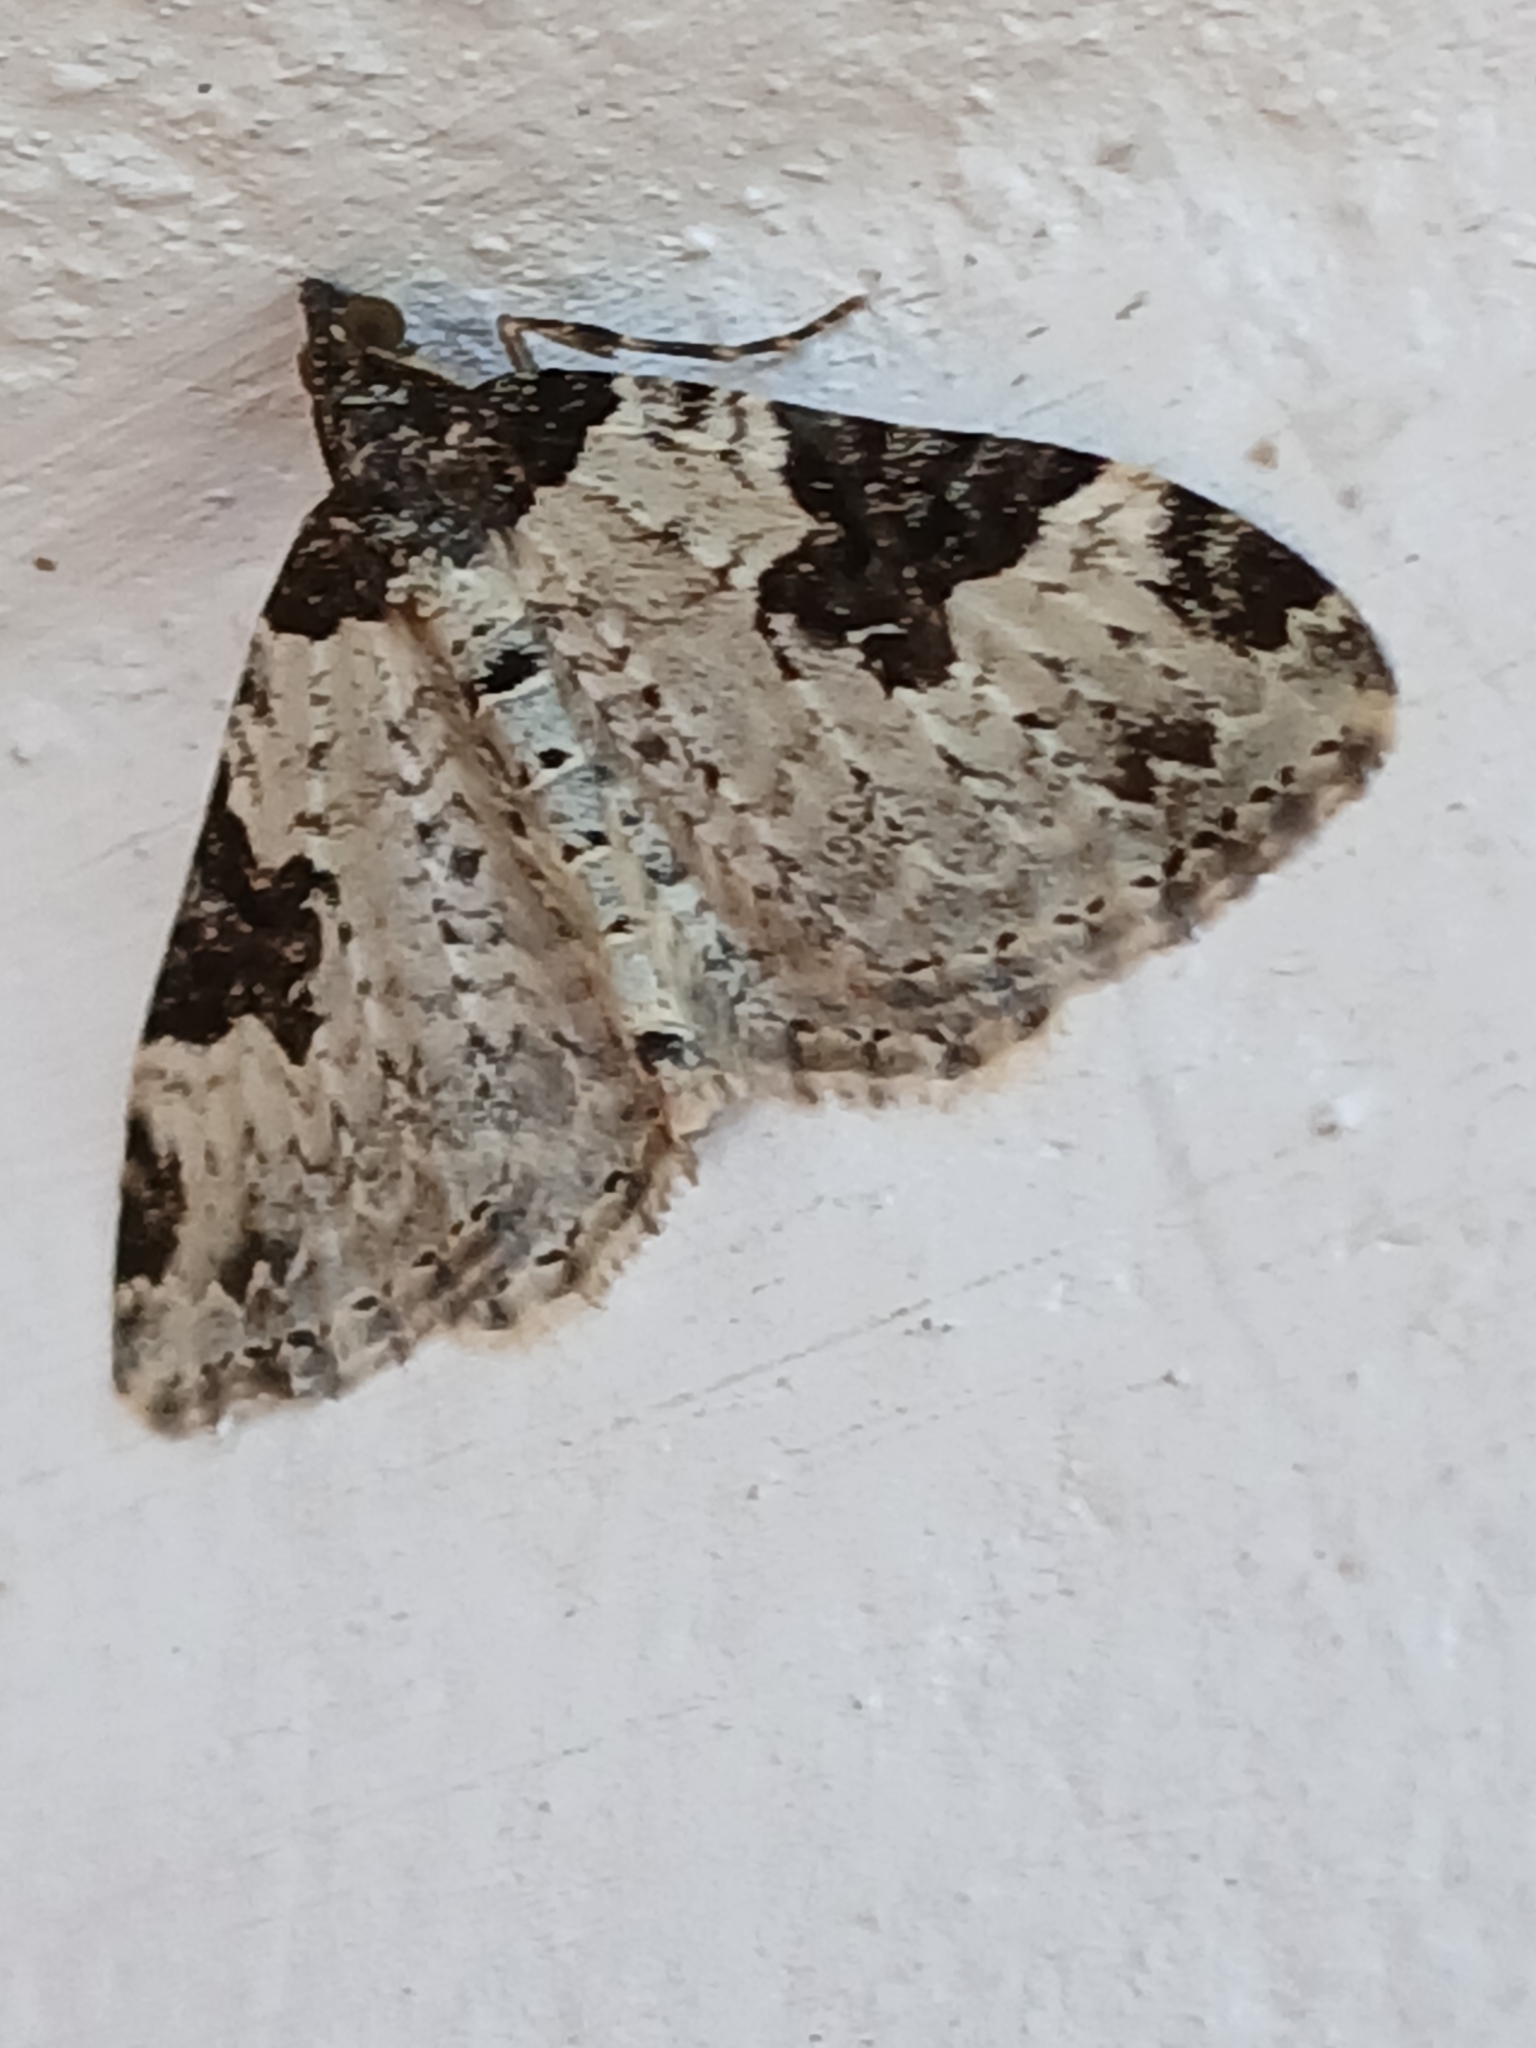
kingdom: Animalia
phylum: Arthropoda
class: Insecta
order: Lepidoptera
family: Geometridae
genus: Xanthorhoe
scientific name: Xanthorhoe fluctuata
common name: Garden carpet
